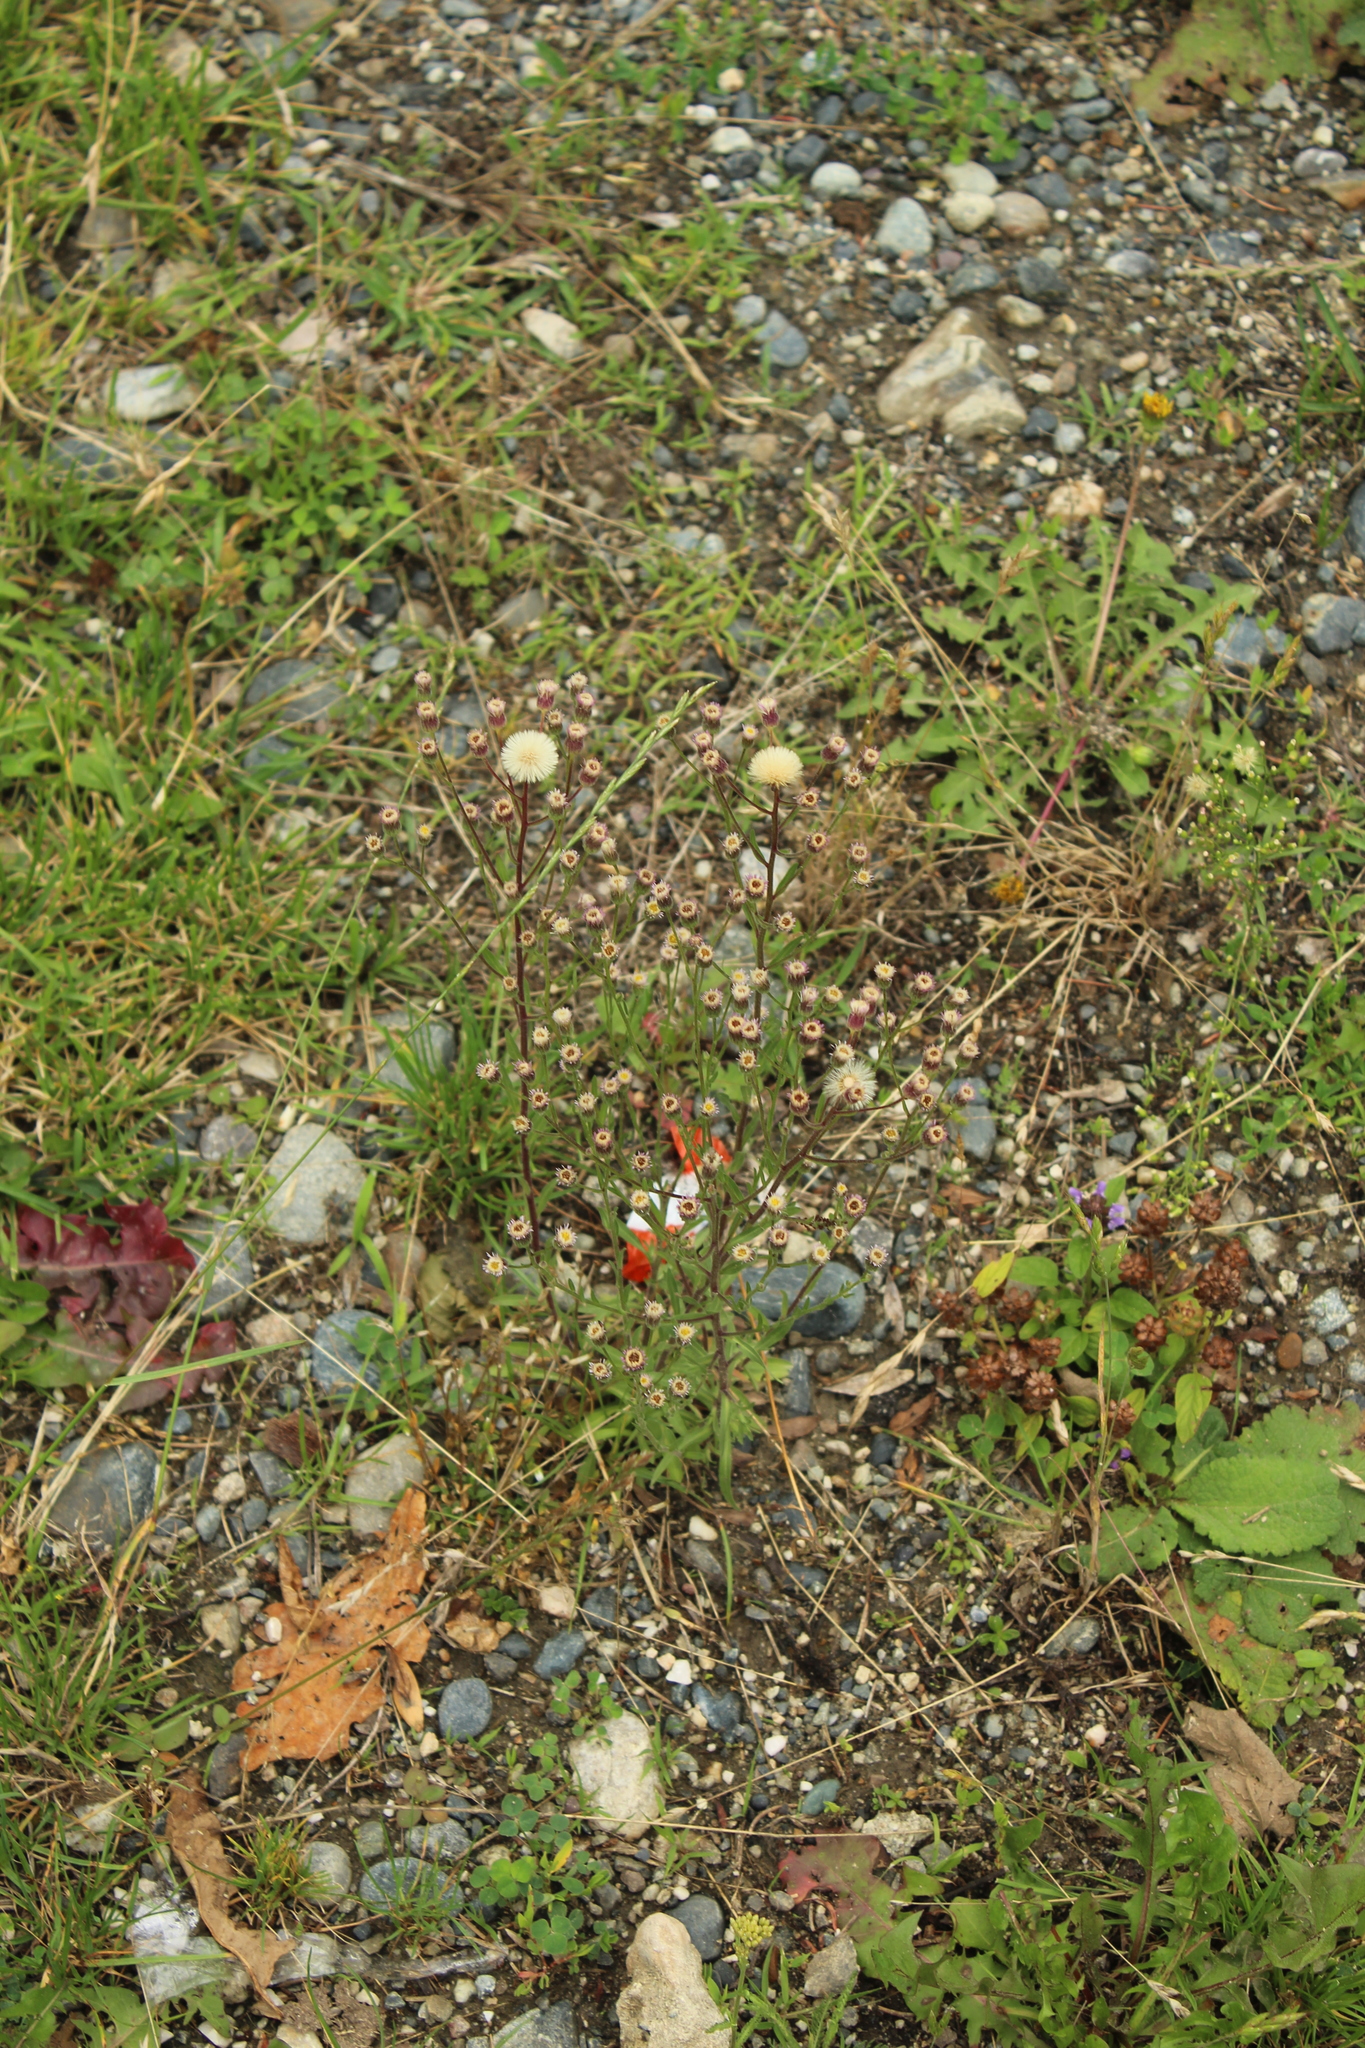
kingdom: Plantae
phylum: Tracheophyta
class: Magnoliopsida
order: Asterales
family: Asteraceae
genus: Erigeron
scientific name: Erigeron acris
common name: Blue fleabane
